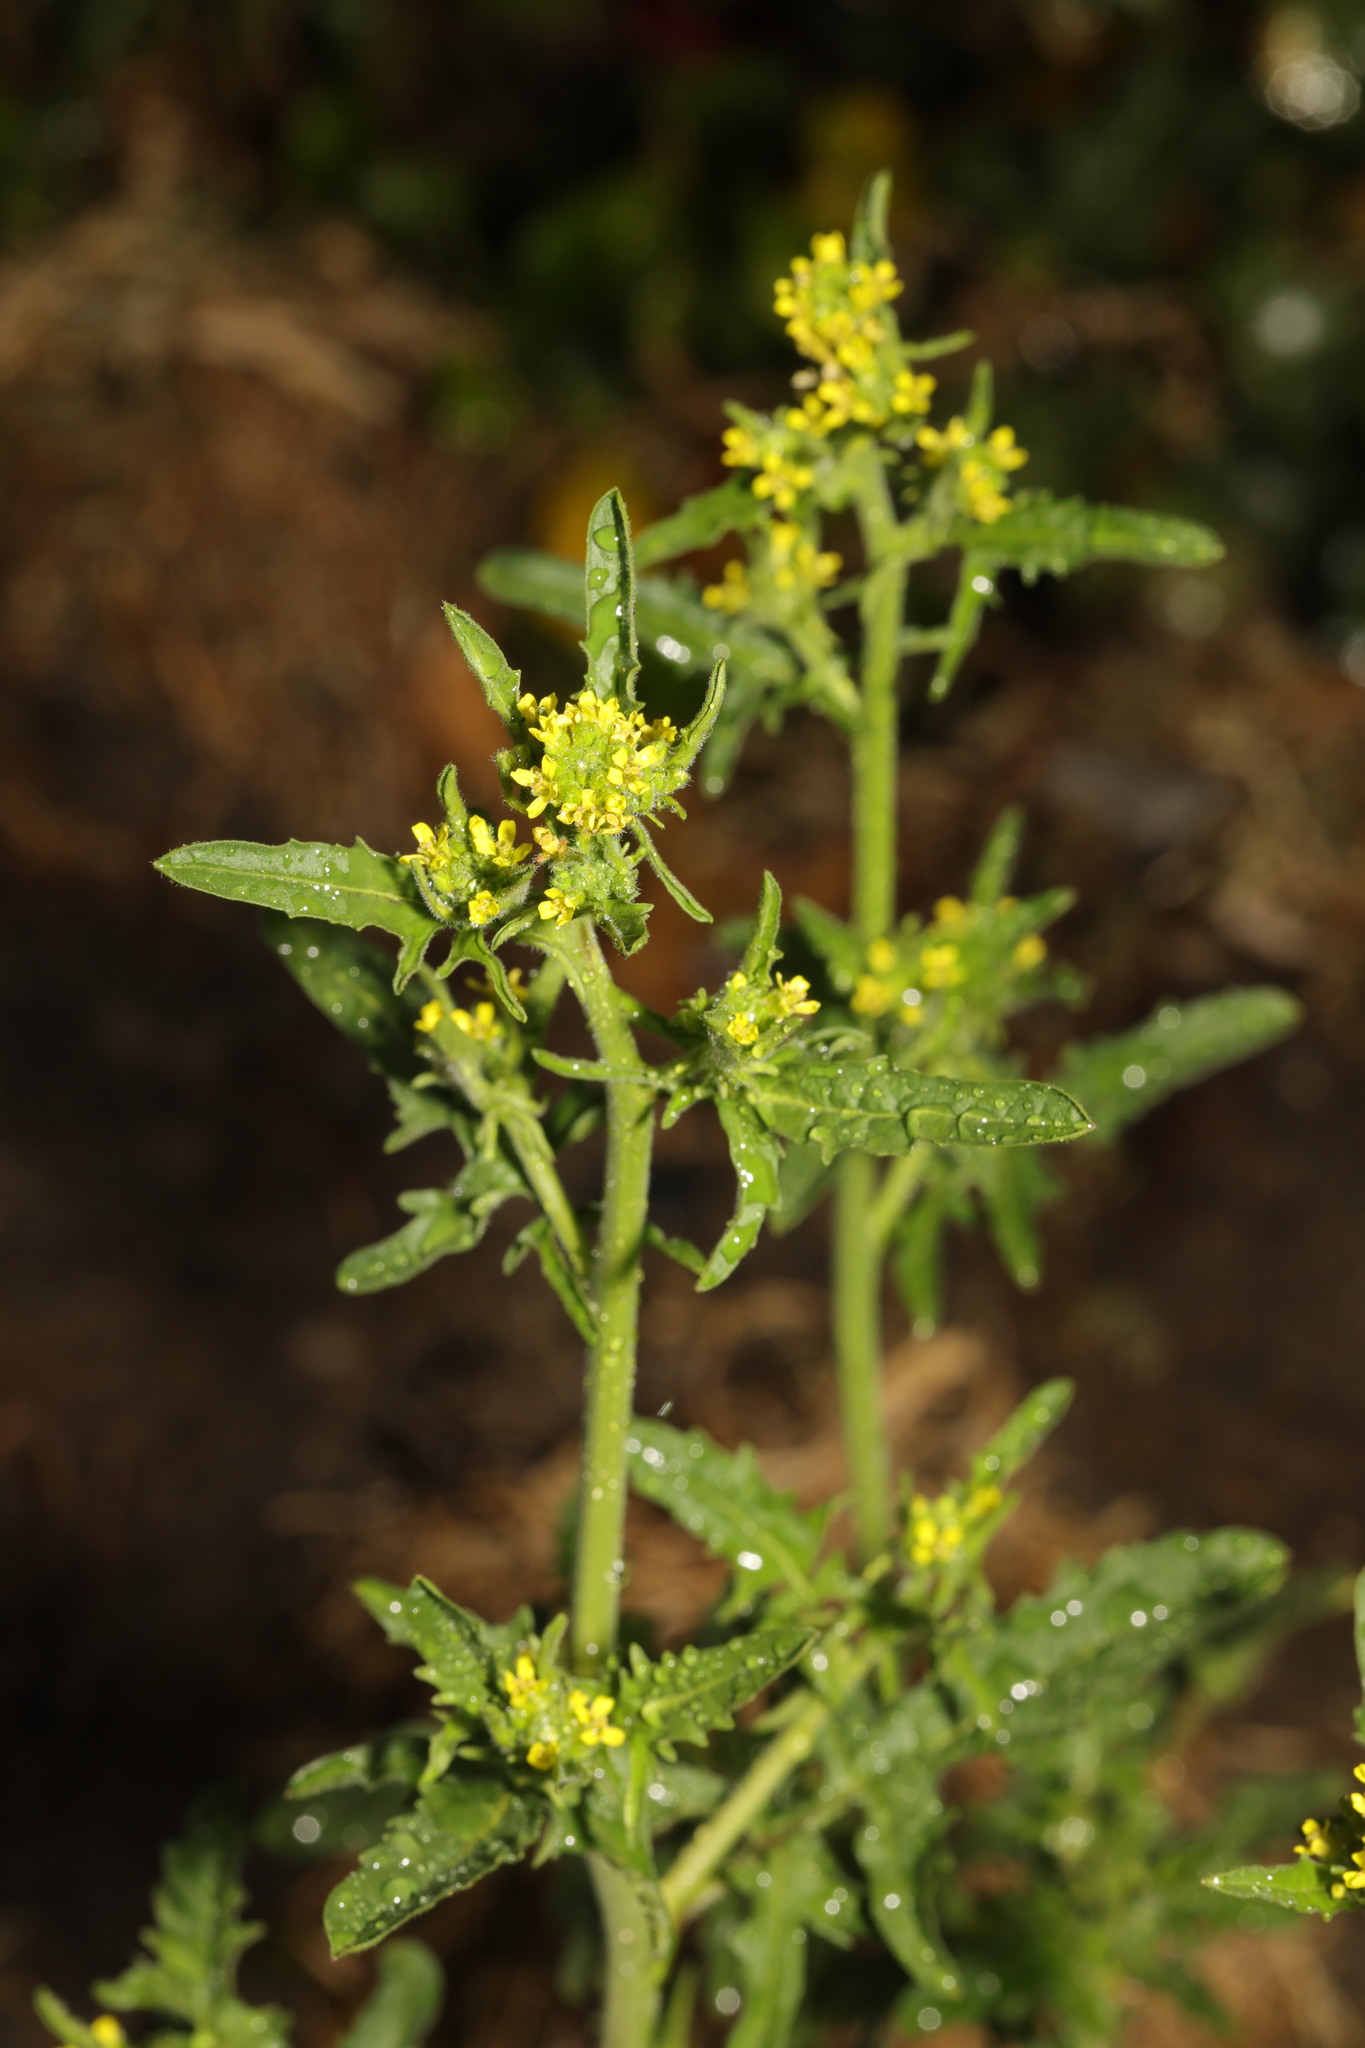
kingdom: Plantae
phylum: Tracheophyta
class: Magnoliopsida
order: Brassicales
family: Brassicaceae
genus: Sisymbrium
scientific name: Sisymbrium officinale
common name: Hedge mustard
